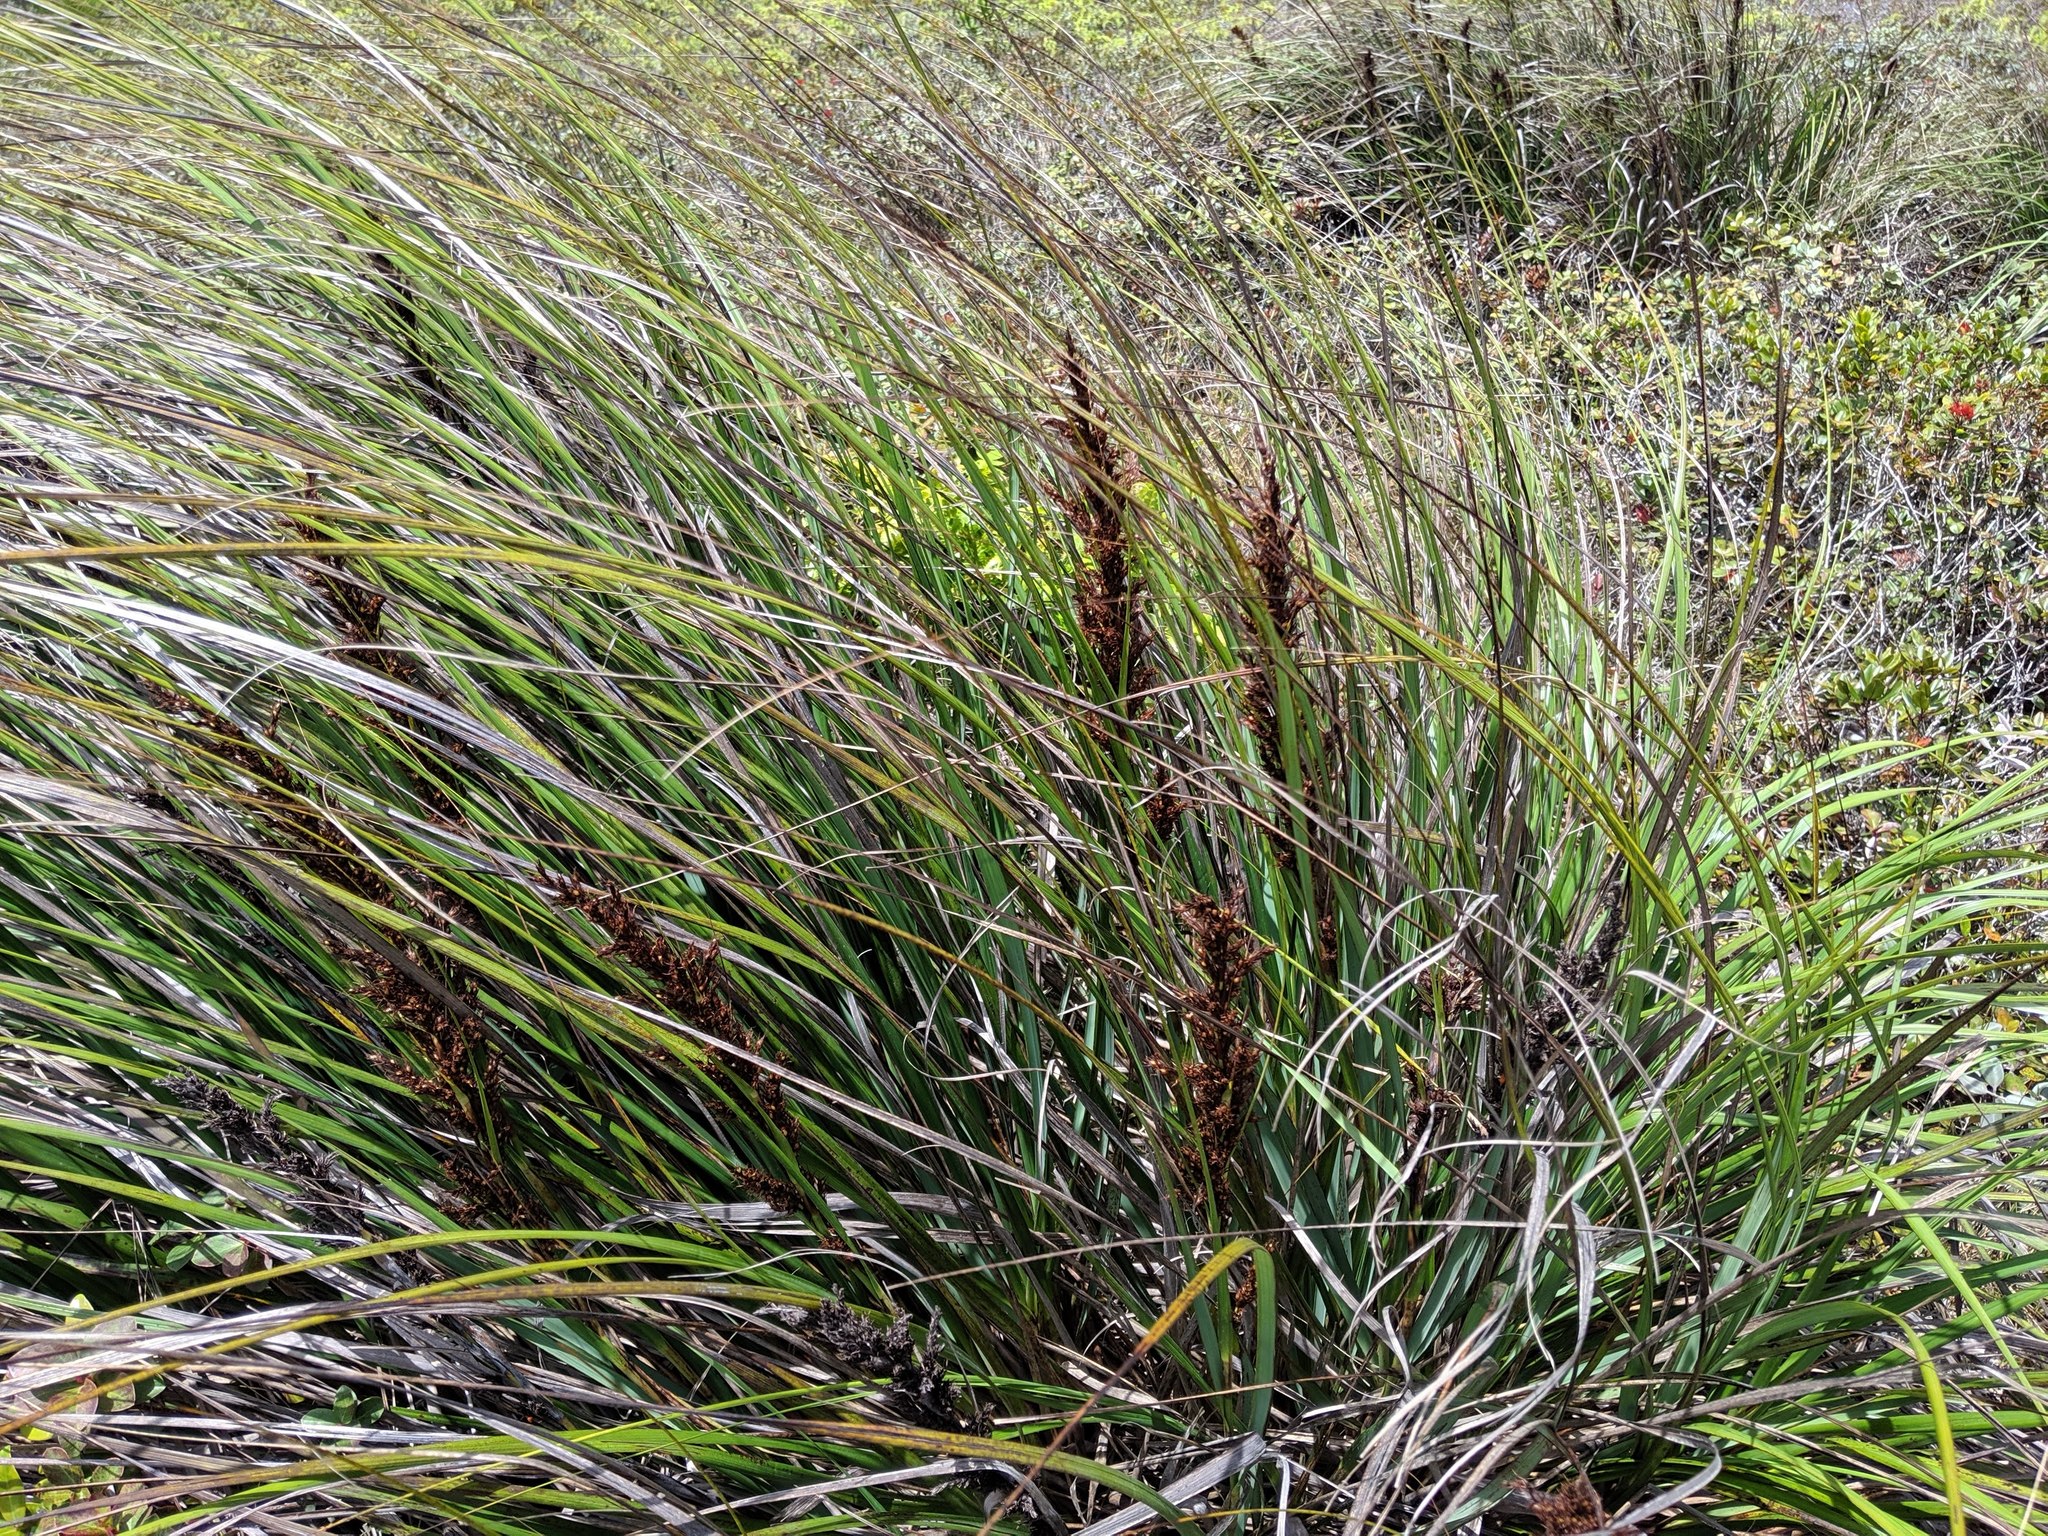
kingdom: Plantae
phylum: Tracheophyta
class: Liliopsida
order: Poales
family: Cyperaceae
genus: Gahnia
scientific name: Gahnia beecheyi
